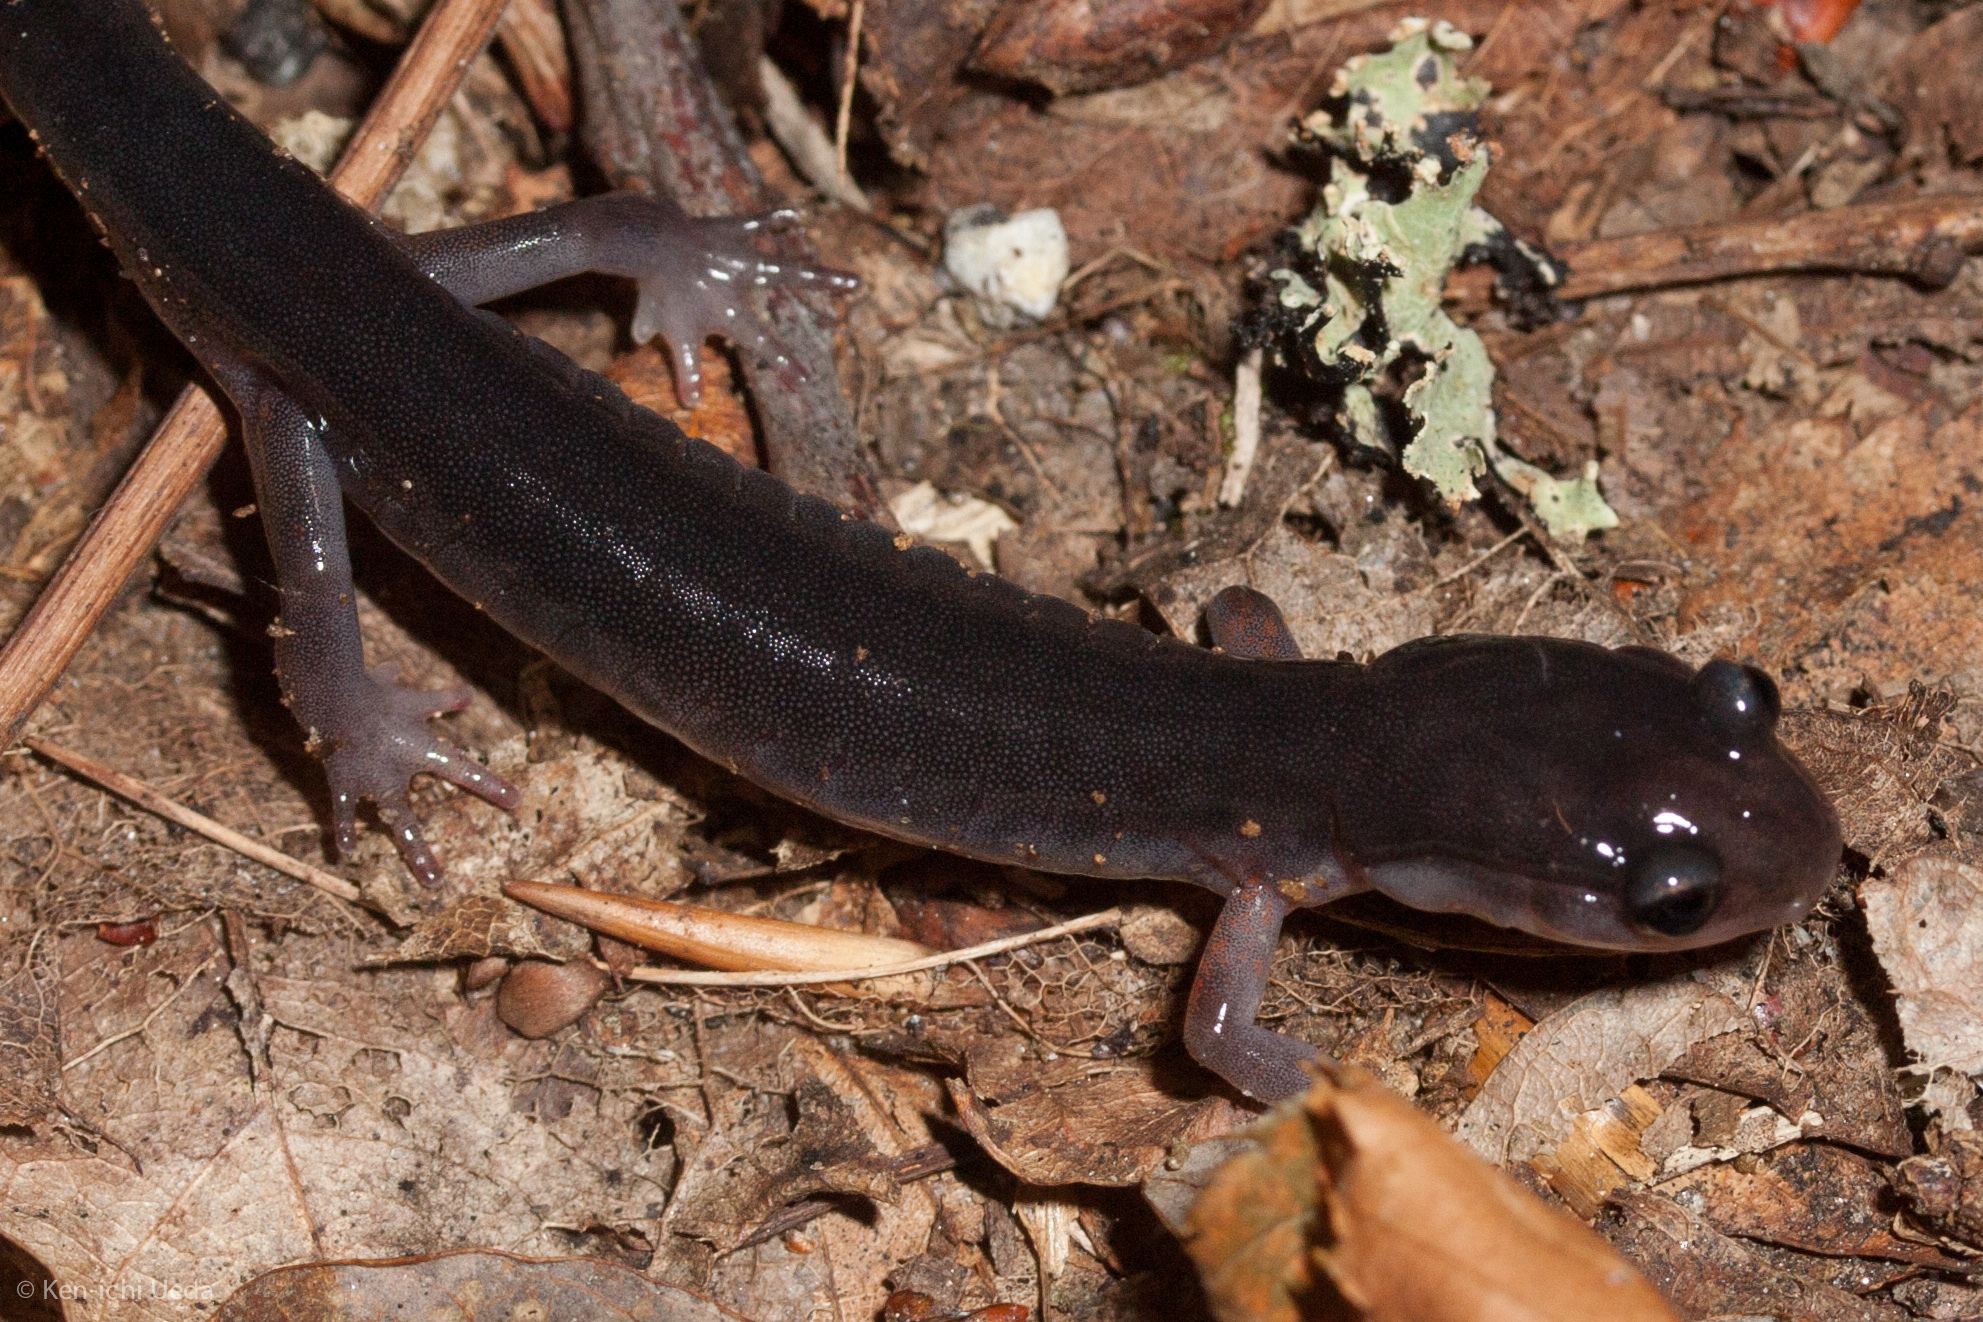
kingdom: Animalia
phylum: Chordata
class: Amphibia
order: Caudata
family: Plethodontidae
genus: Plethodon
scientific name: Plethodon shermani
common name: Red-legged salamander
